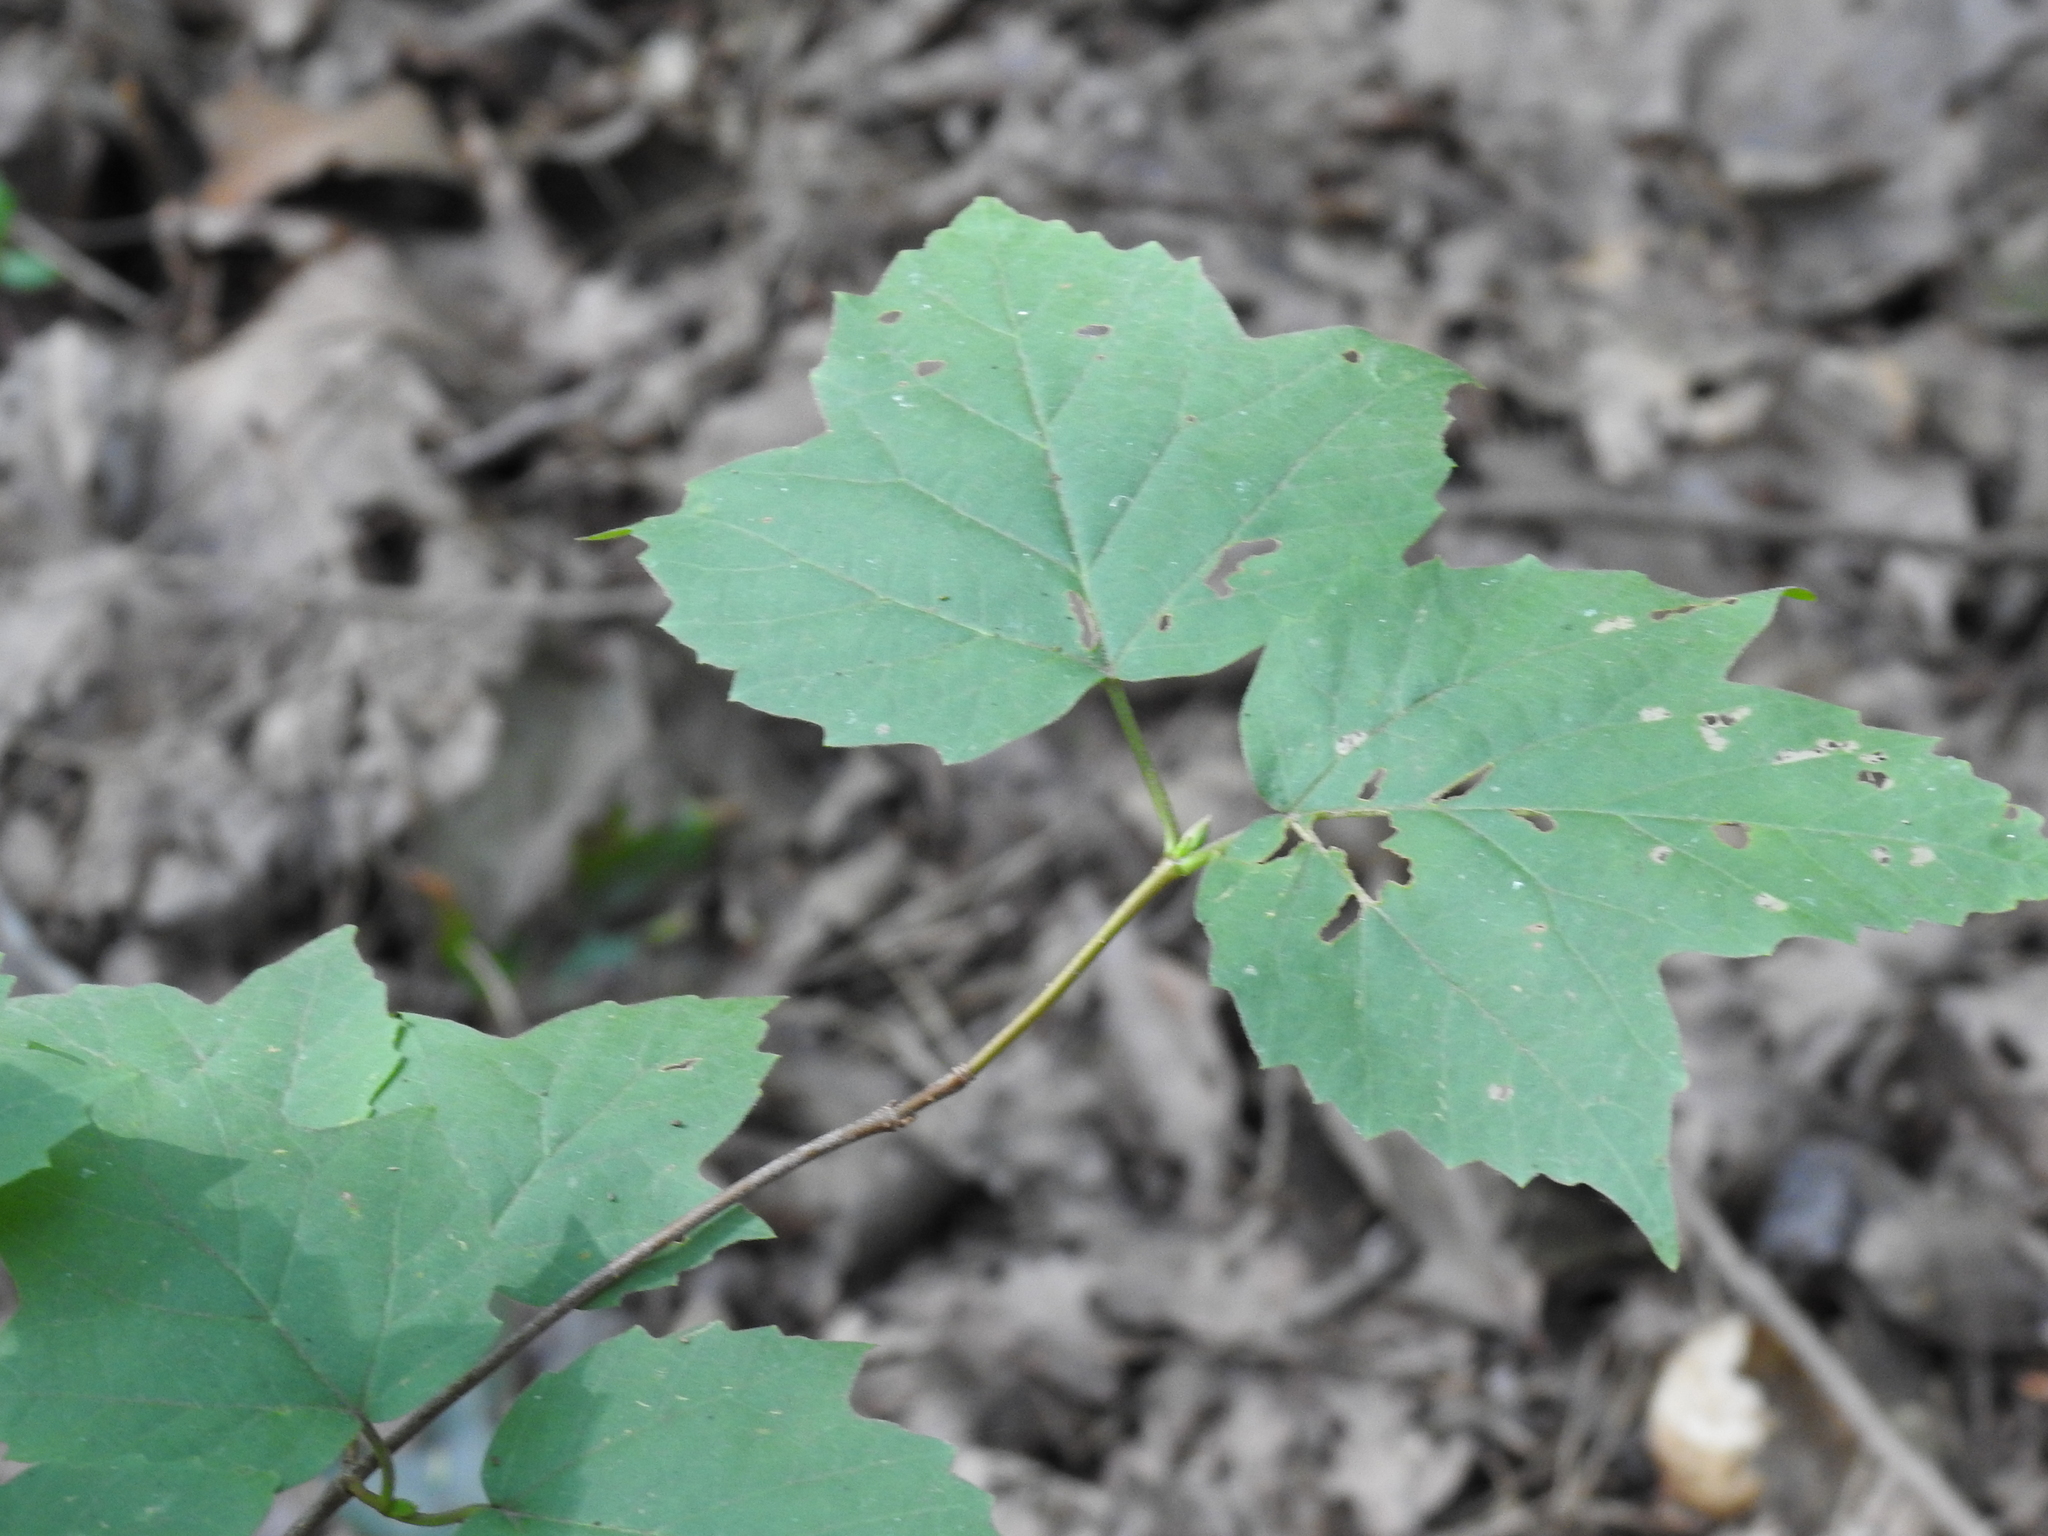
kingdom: Plantae
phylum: Tracheophyta
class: Magnoliopsida
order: Dipsacales
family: Viburnaceae
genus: Viburnum
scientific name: Viburnum acerifolium
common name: Dockmackie
